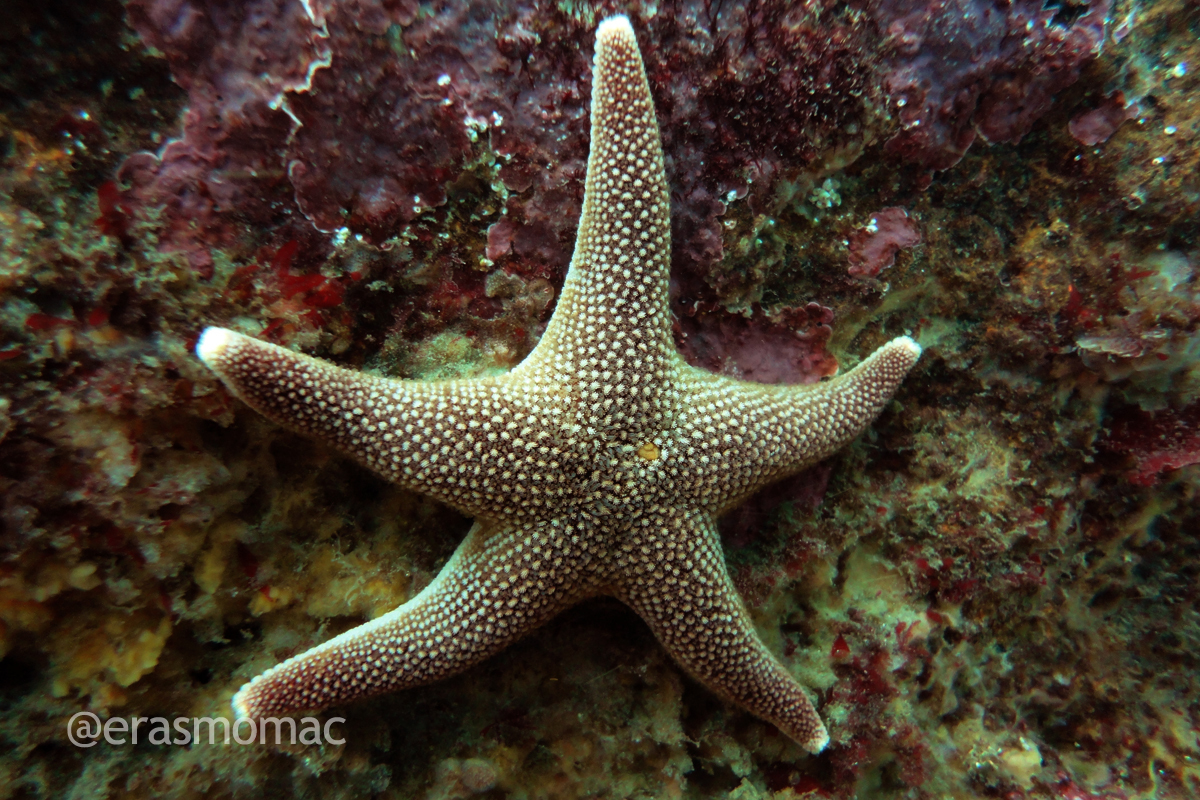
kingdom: Animalia
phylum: Echinodermata
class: Asteroidea
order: Valvatida
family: Asterinidae
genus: Cycethra
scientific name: Cycethra verrucosa
